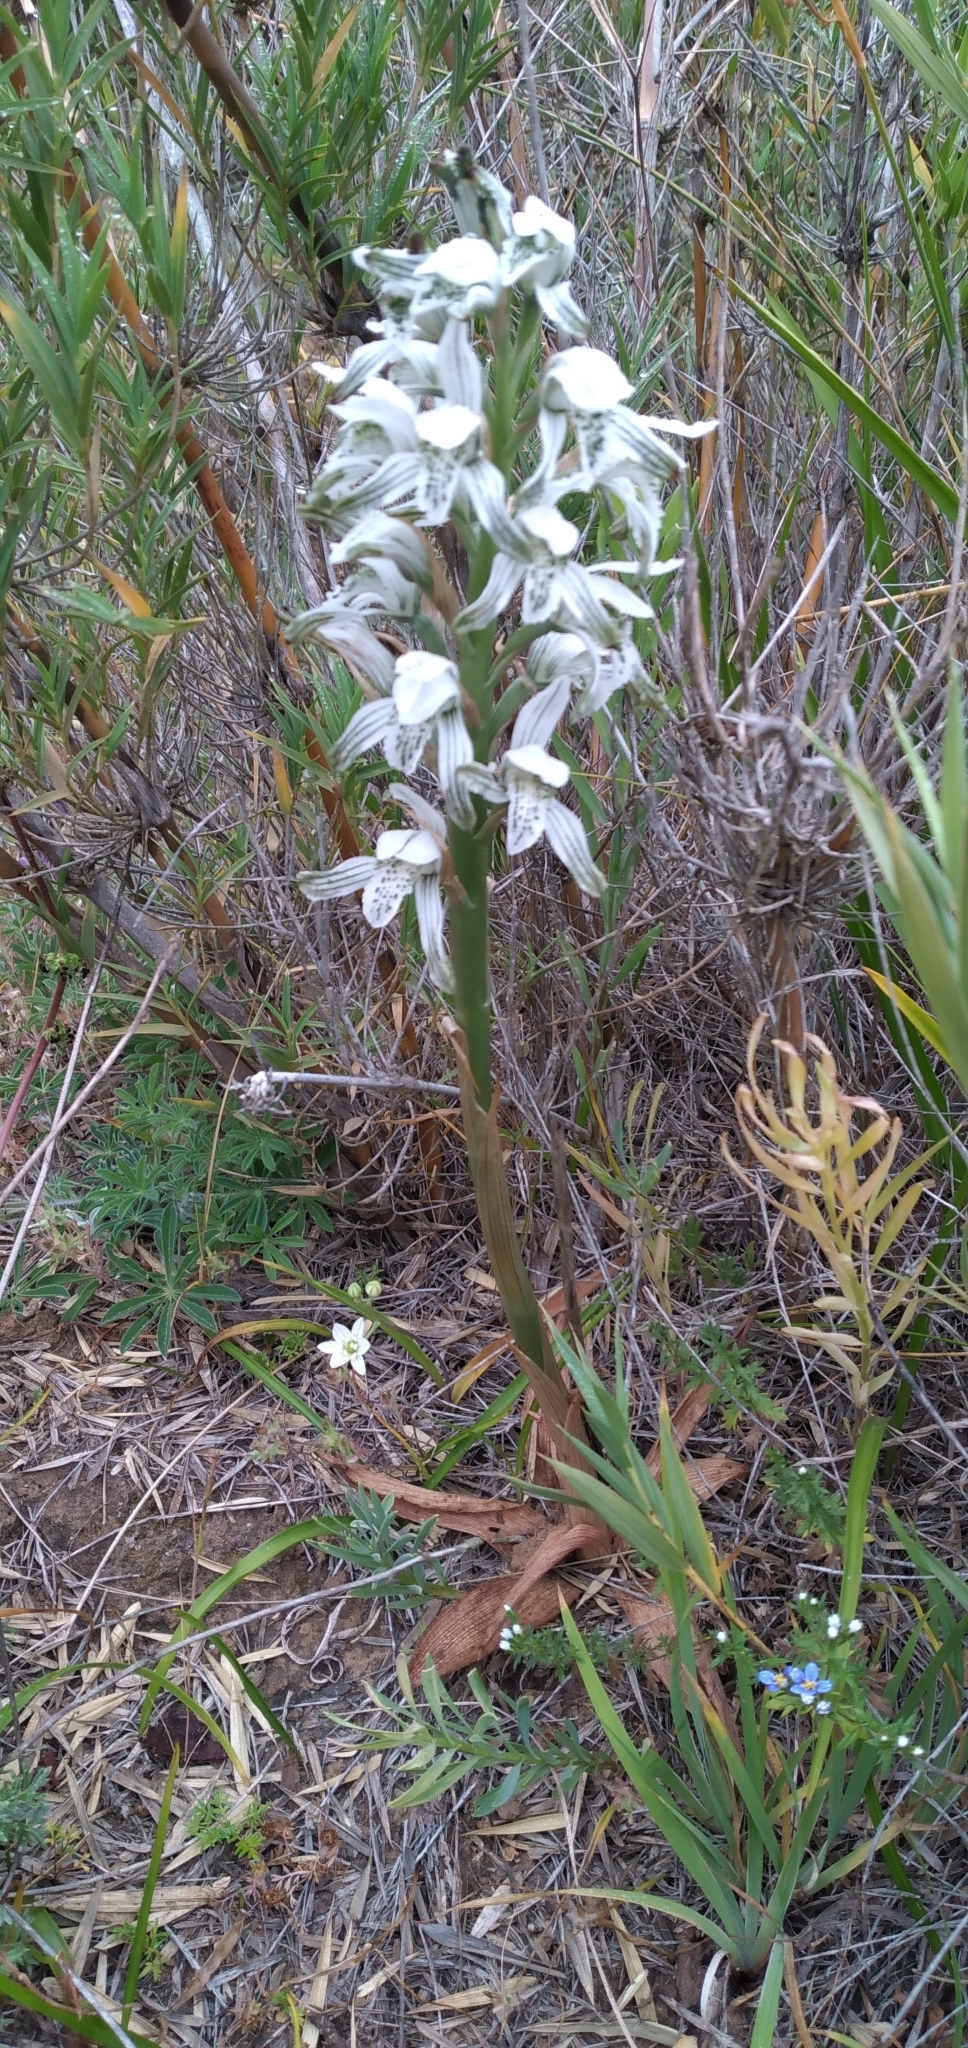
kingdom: Plantae
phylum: Tracheophyta
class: Liliopsida
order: Asparagales
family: Orchidaceae
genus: Chloraea
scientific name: Chloraea multiflora
